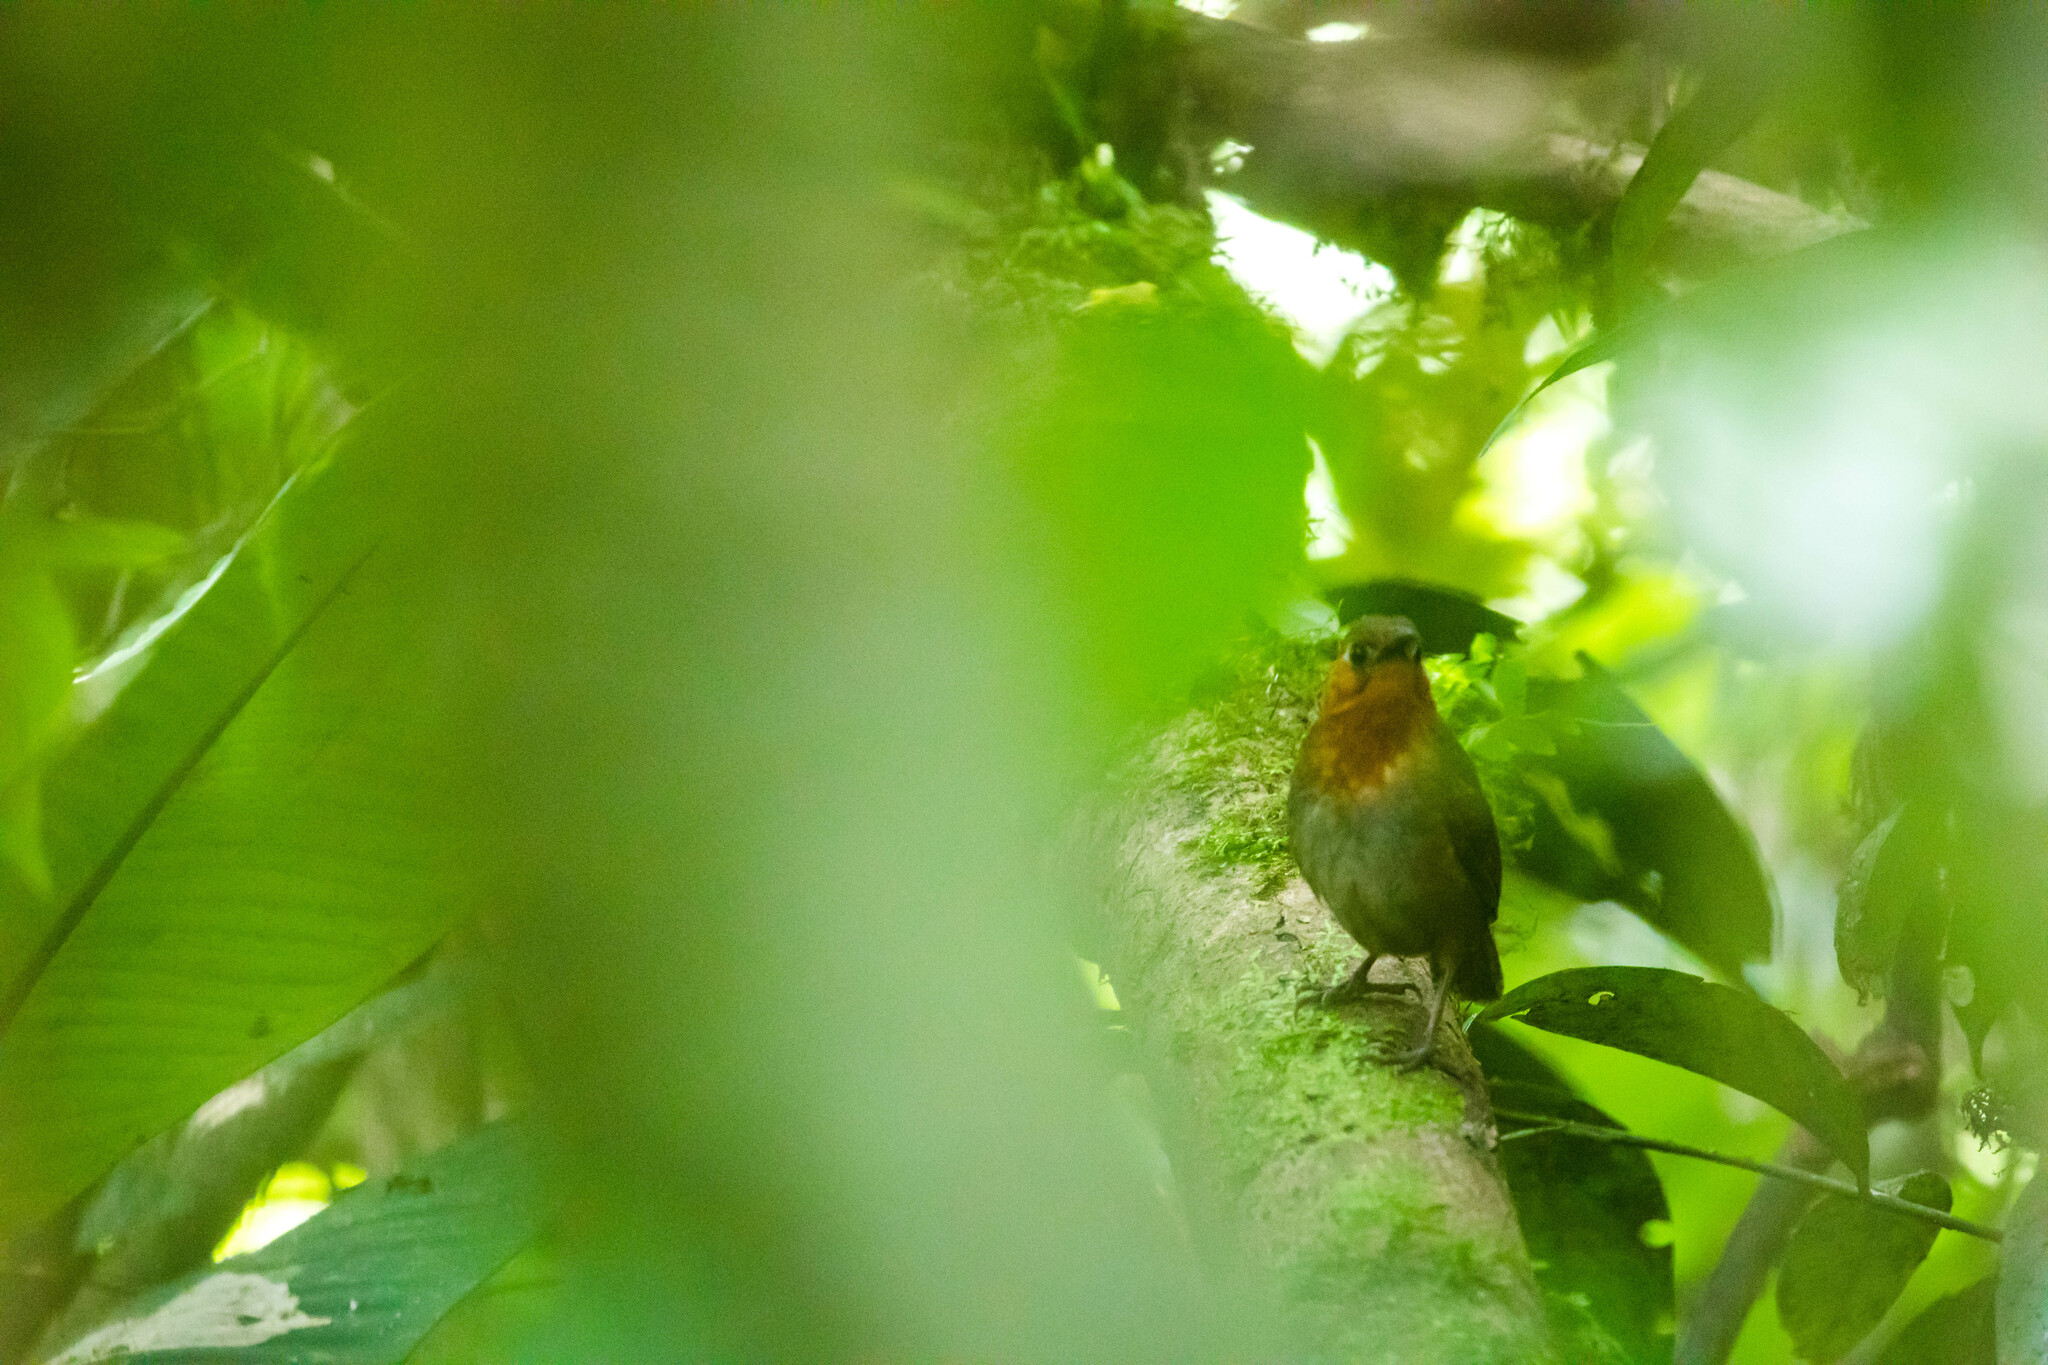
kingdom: Animalia
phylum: Chordata
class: Aves
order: Passeriformes
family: Troglodytidae
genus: Cyphorhinus
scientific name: Cyphorhinus phaeocephalus
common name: Song wren
